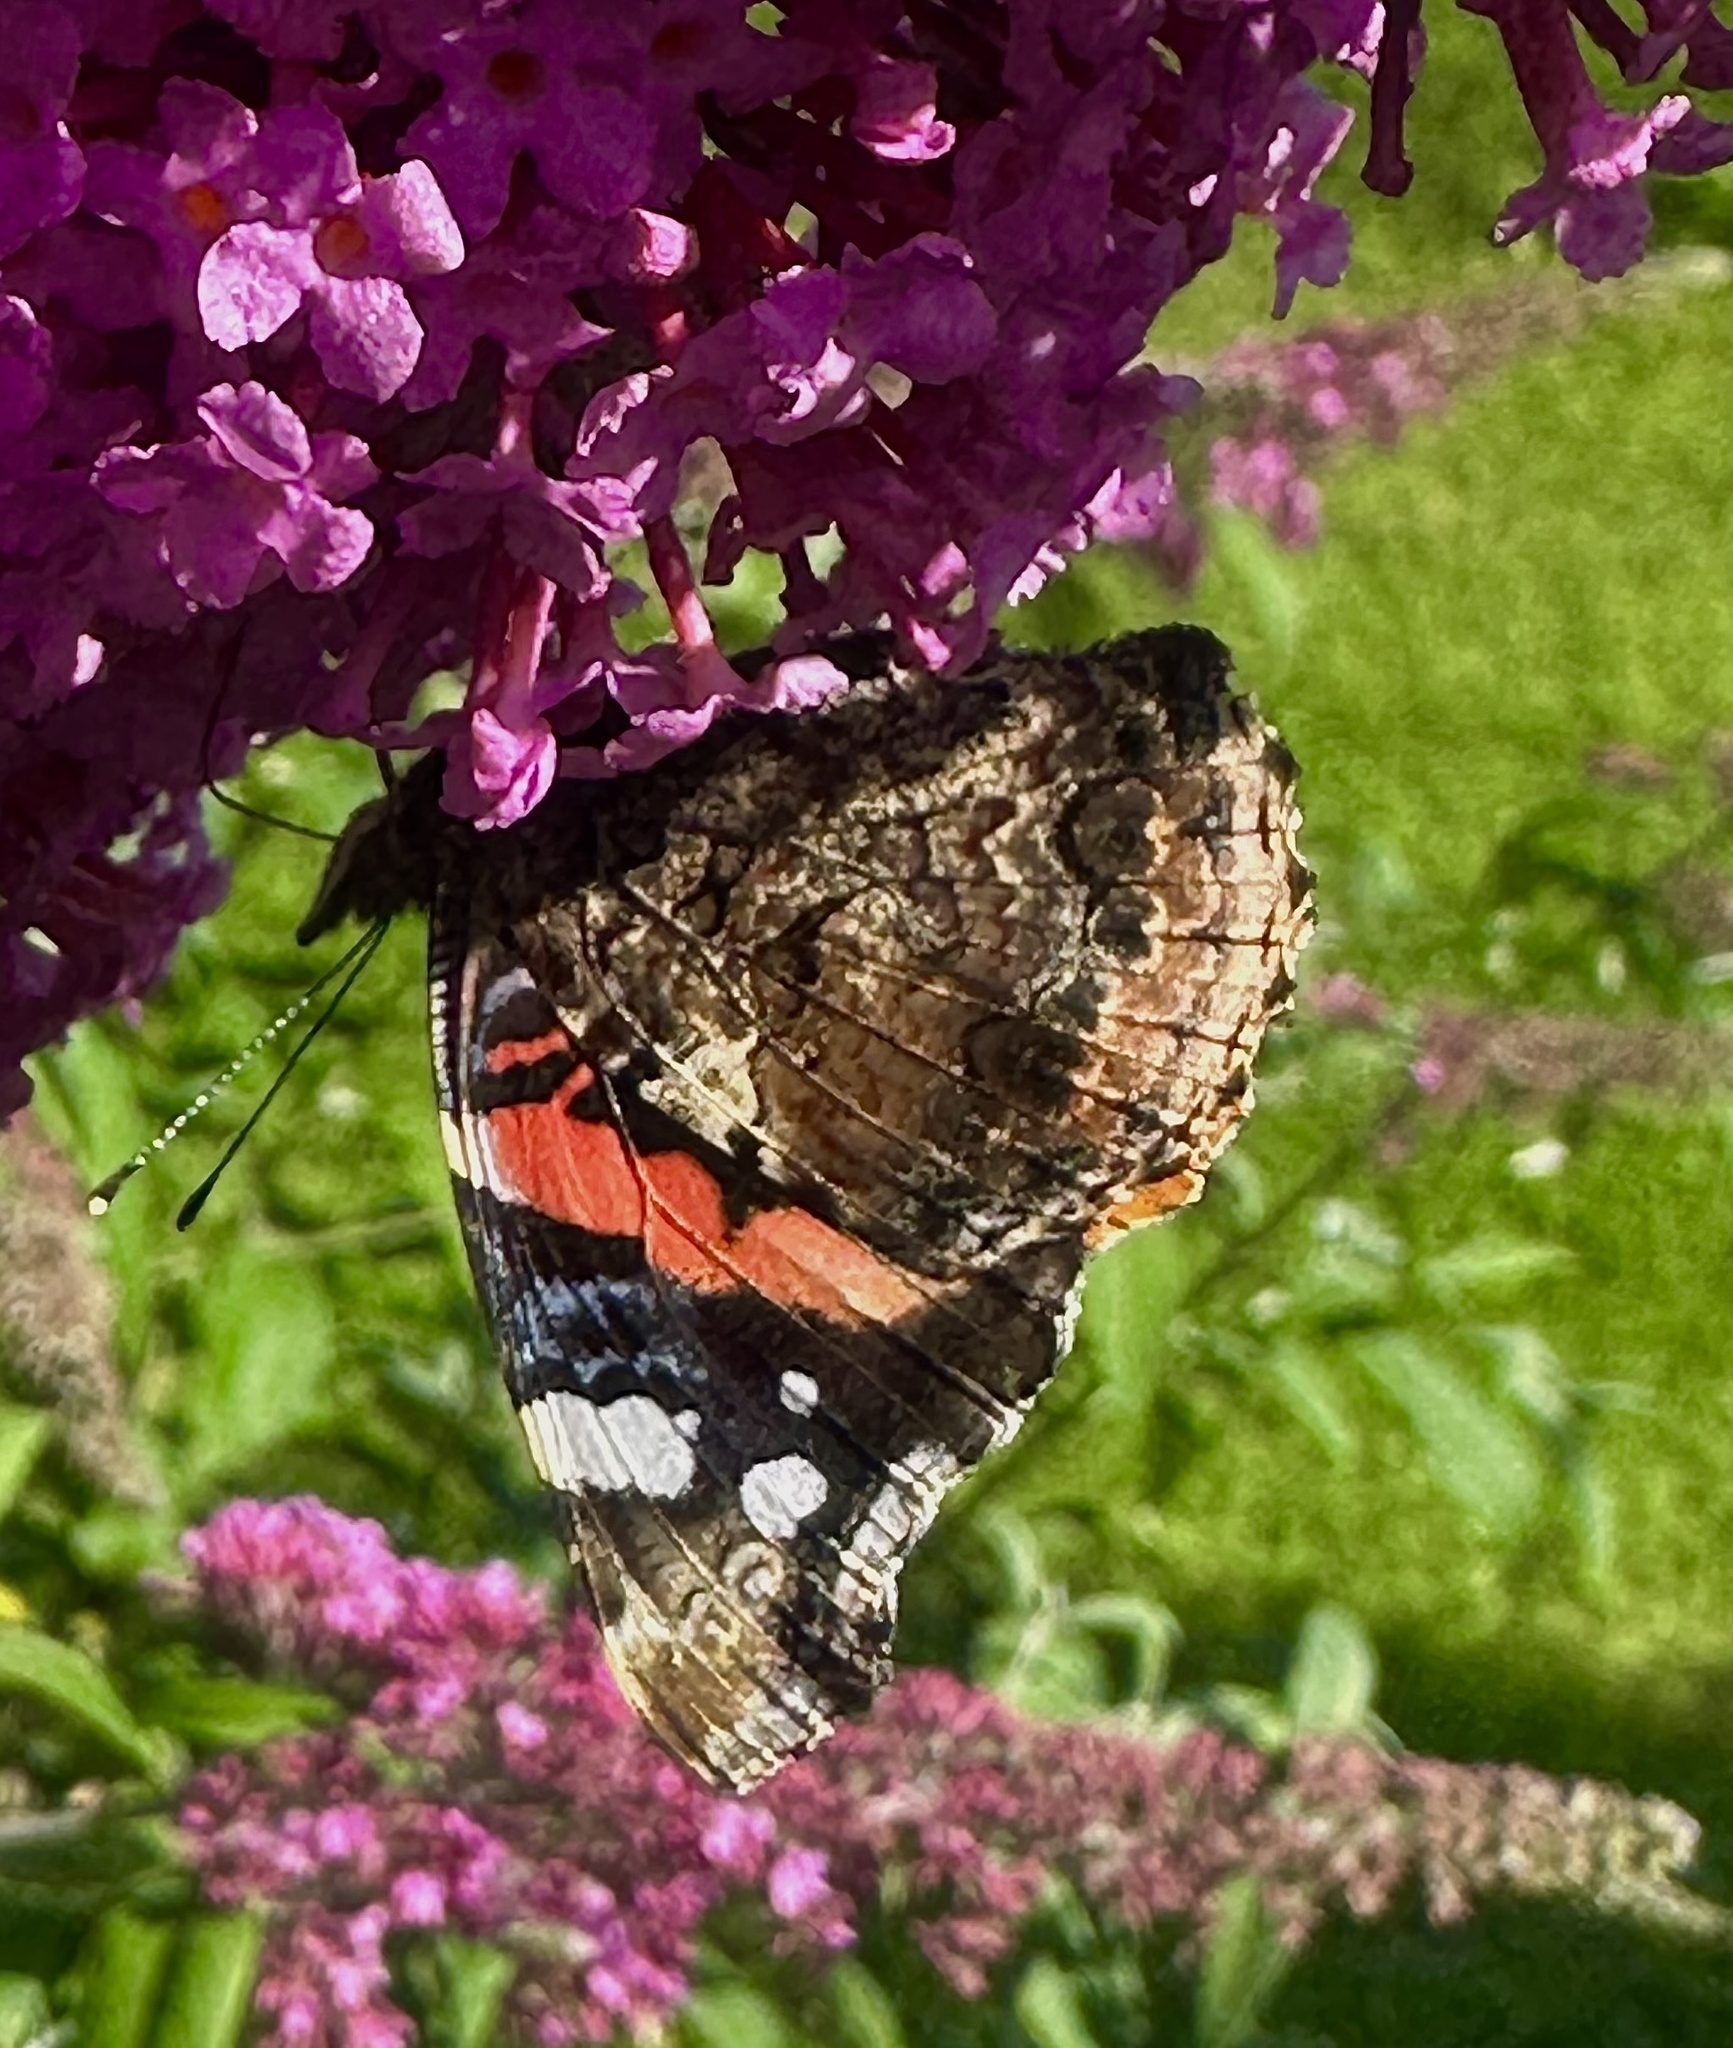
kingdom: Animalia
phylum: Arthropoda
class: Insecta
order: Lepidoptera
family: Nymphalidae
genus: Vanessa
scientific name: Vanessa atalanta
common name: Red admiral
